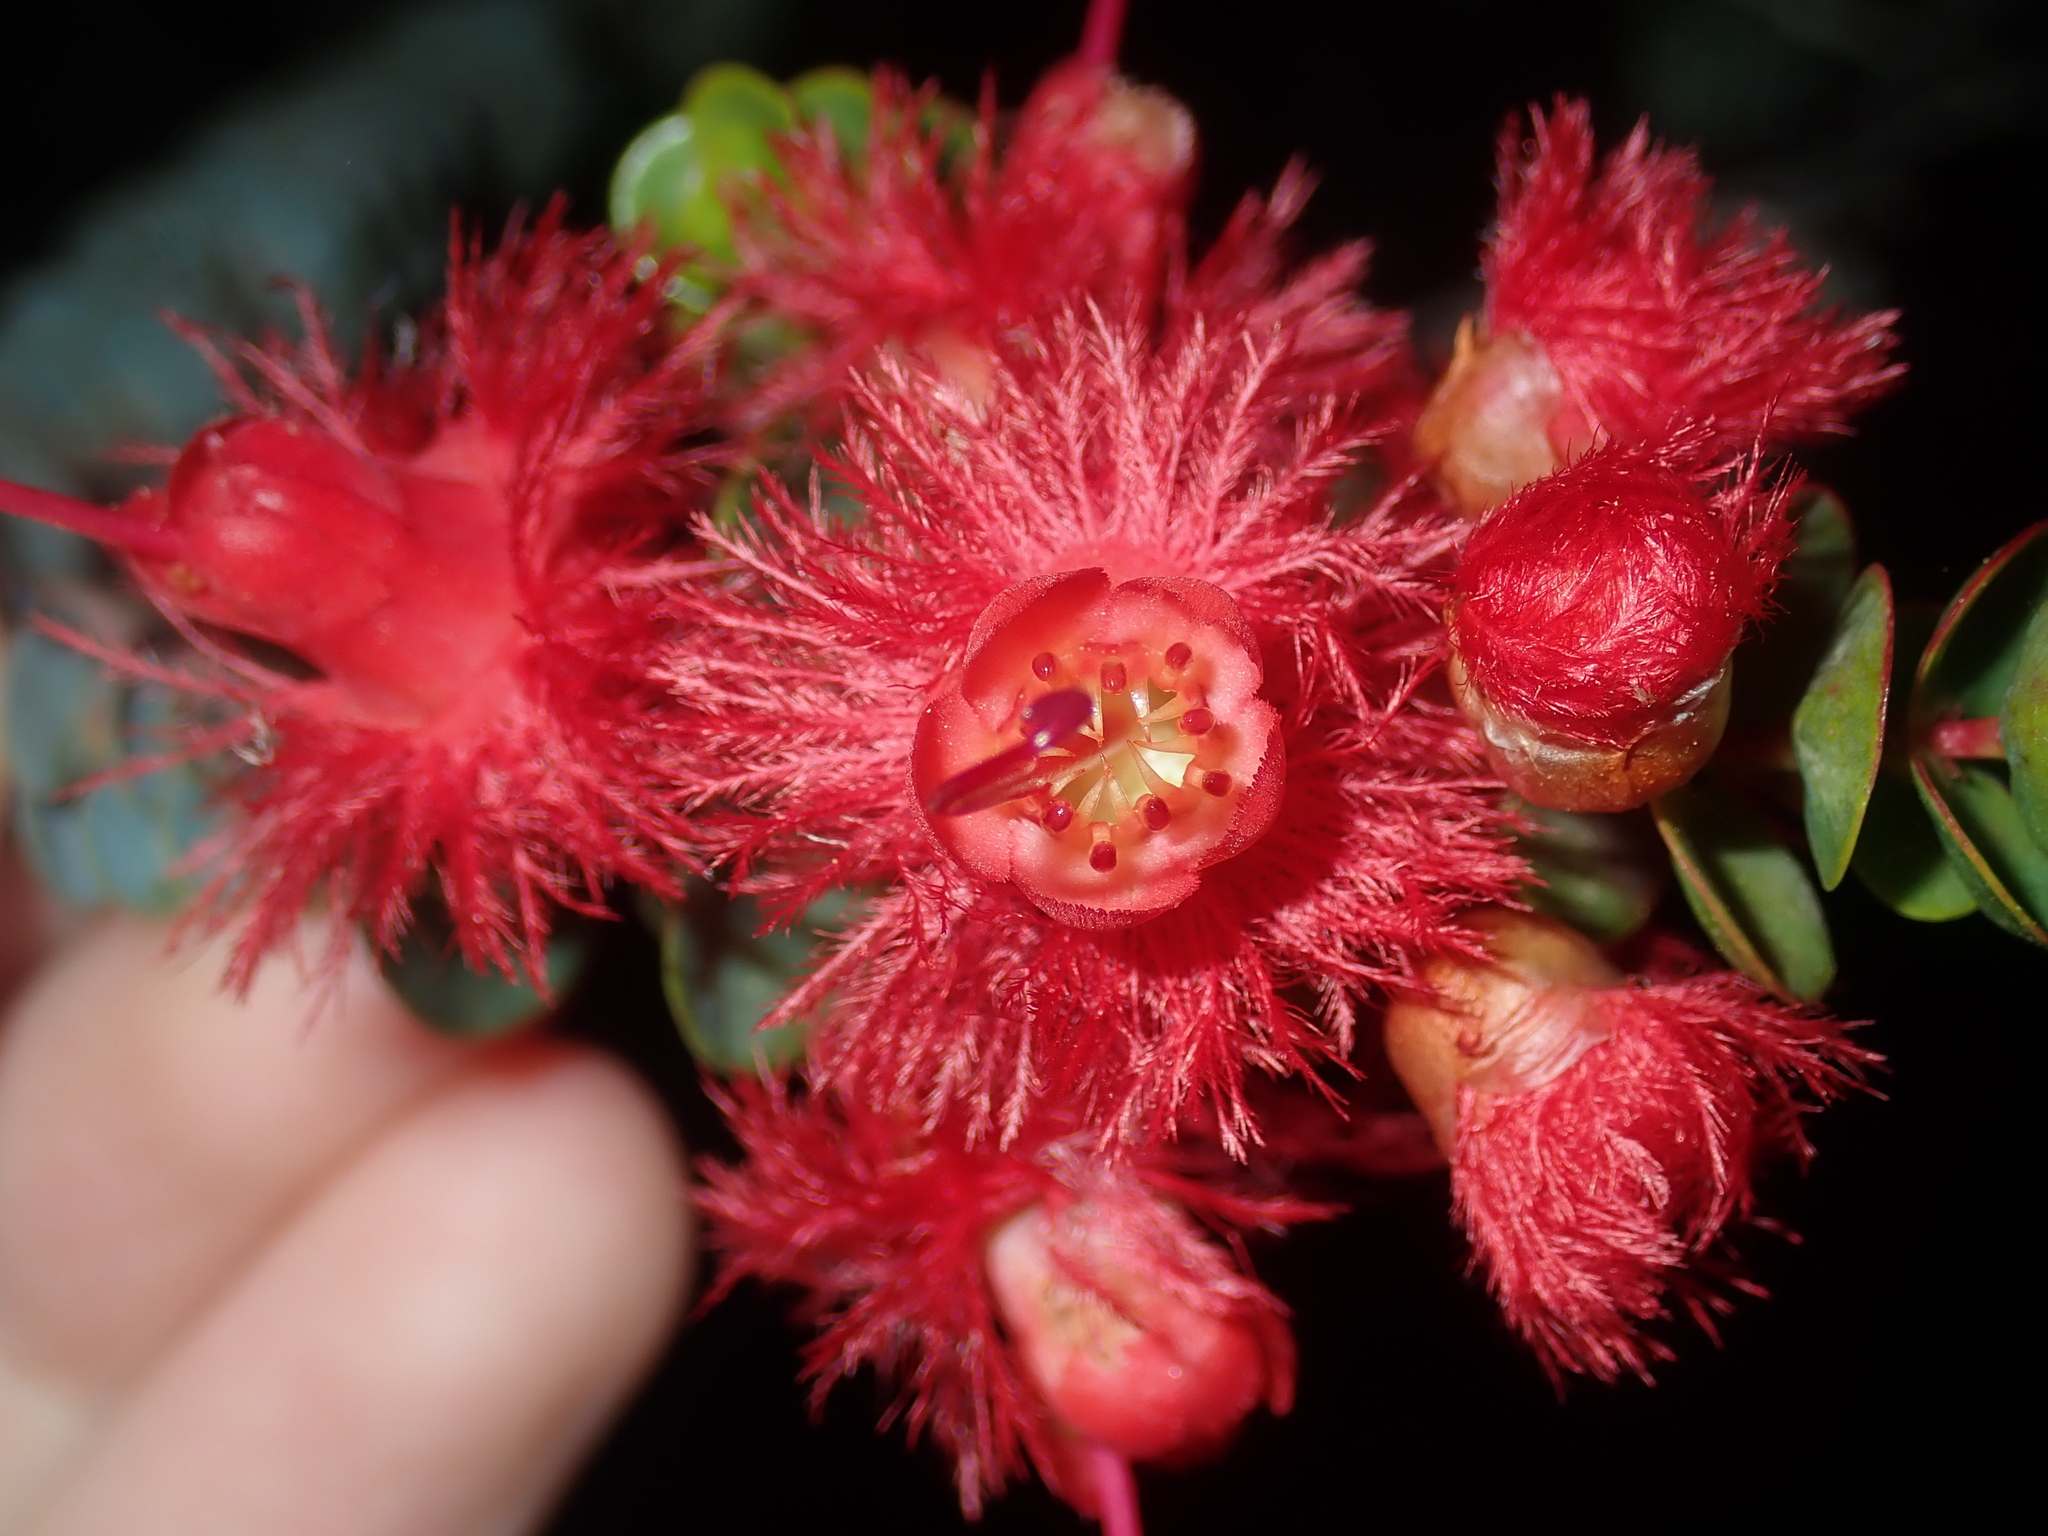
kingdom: Plantae
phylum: Tracheophyta
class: Magnoliopsida
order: Myrtales
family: Myrtaceae
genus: Verticordia
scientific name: Verticordia grandis
